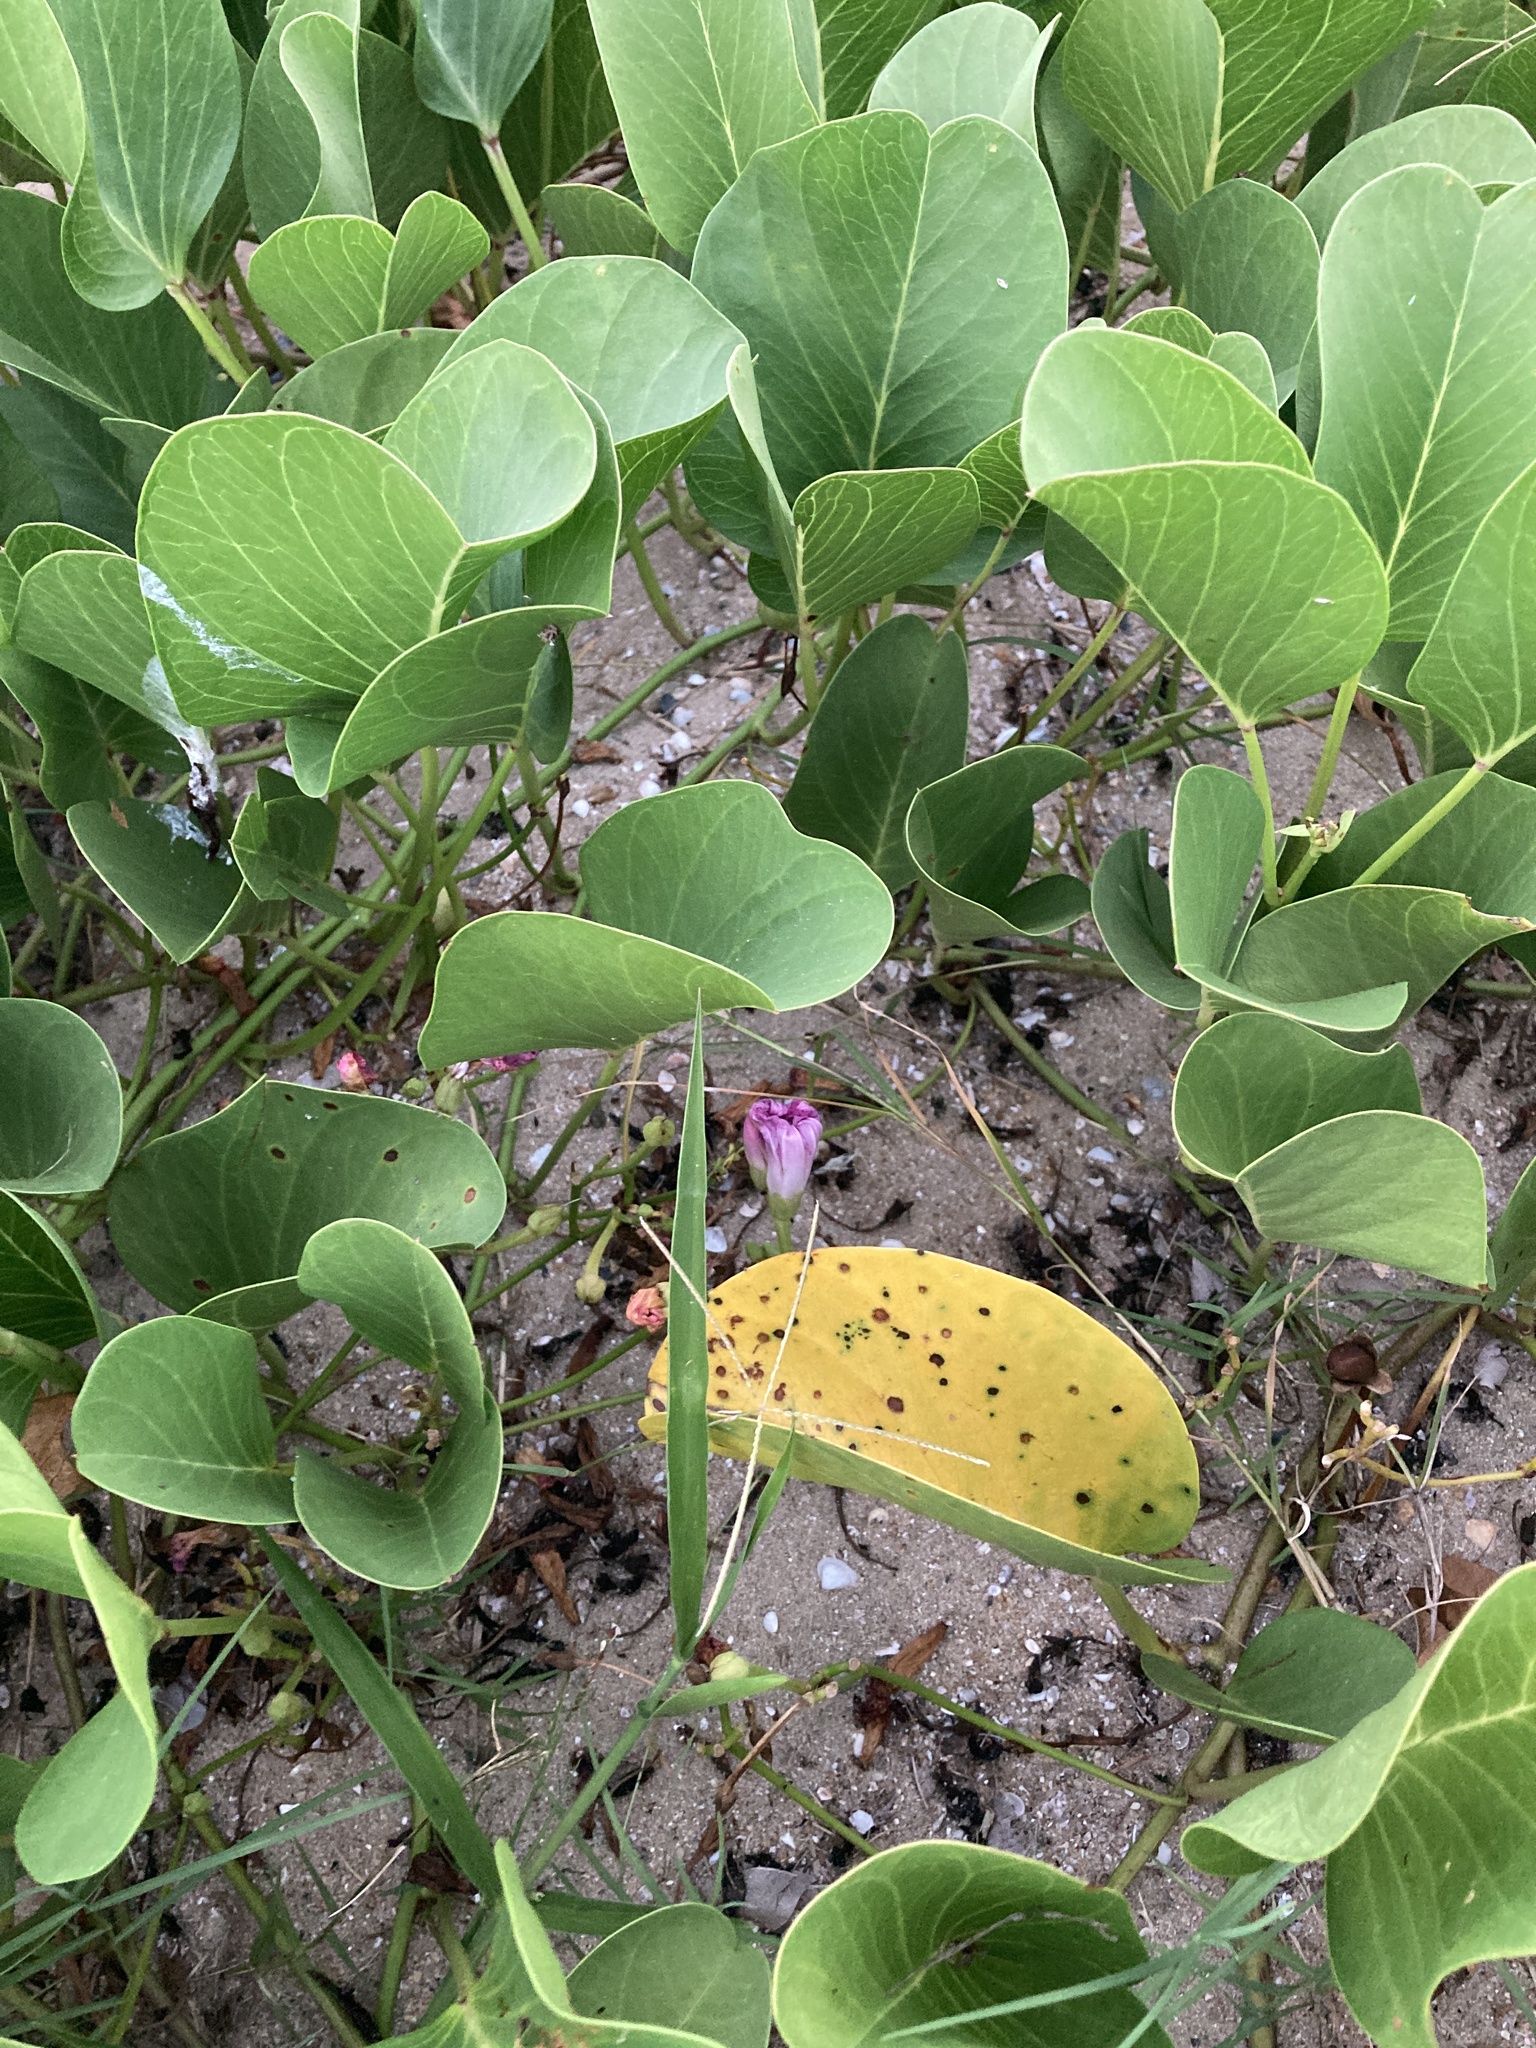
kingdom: Plantae
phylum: Tracheophyta
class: Magnoliopsida
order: Solanales
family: Convolvulaceae
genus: Ipomoea
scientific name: Ipomoea pes-caprae
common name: Beach morning glory
